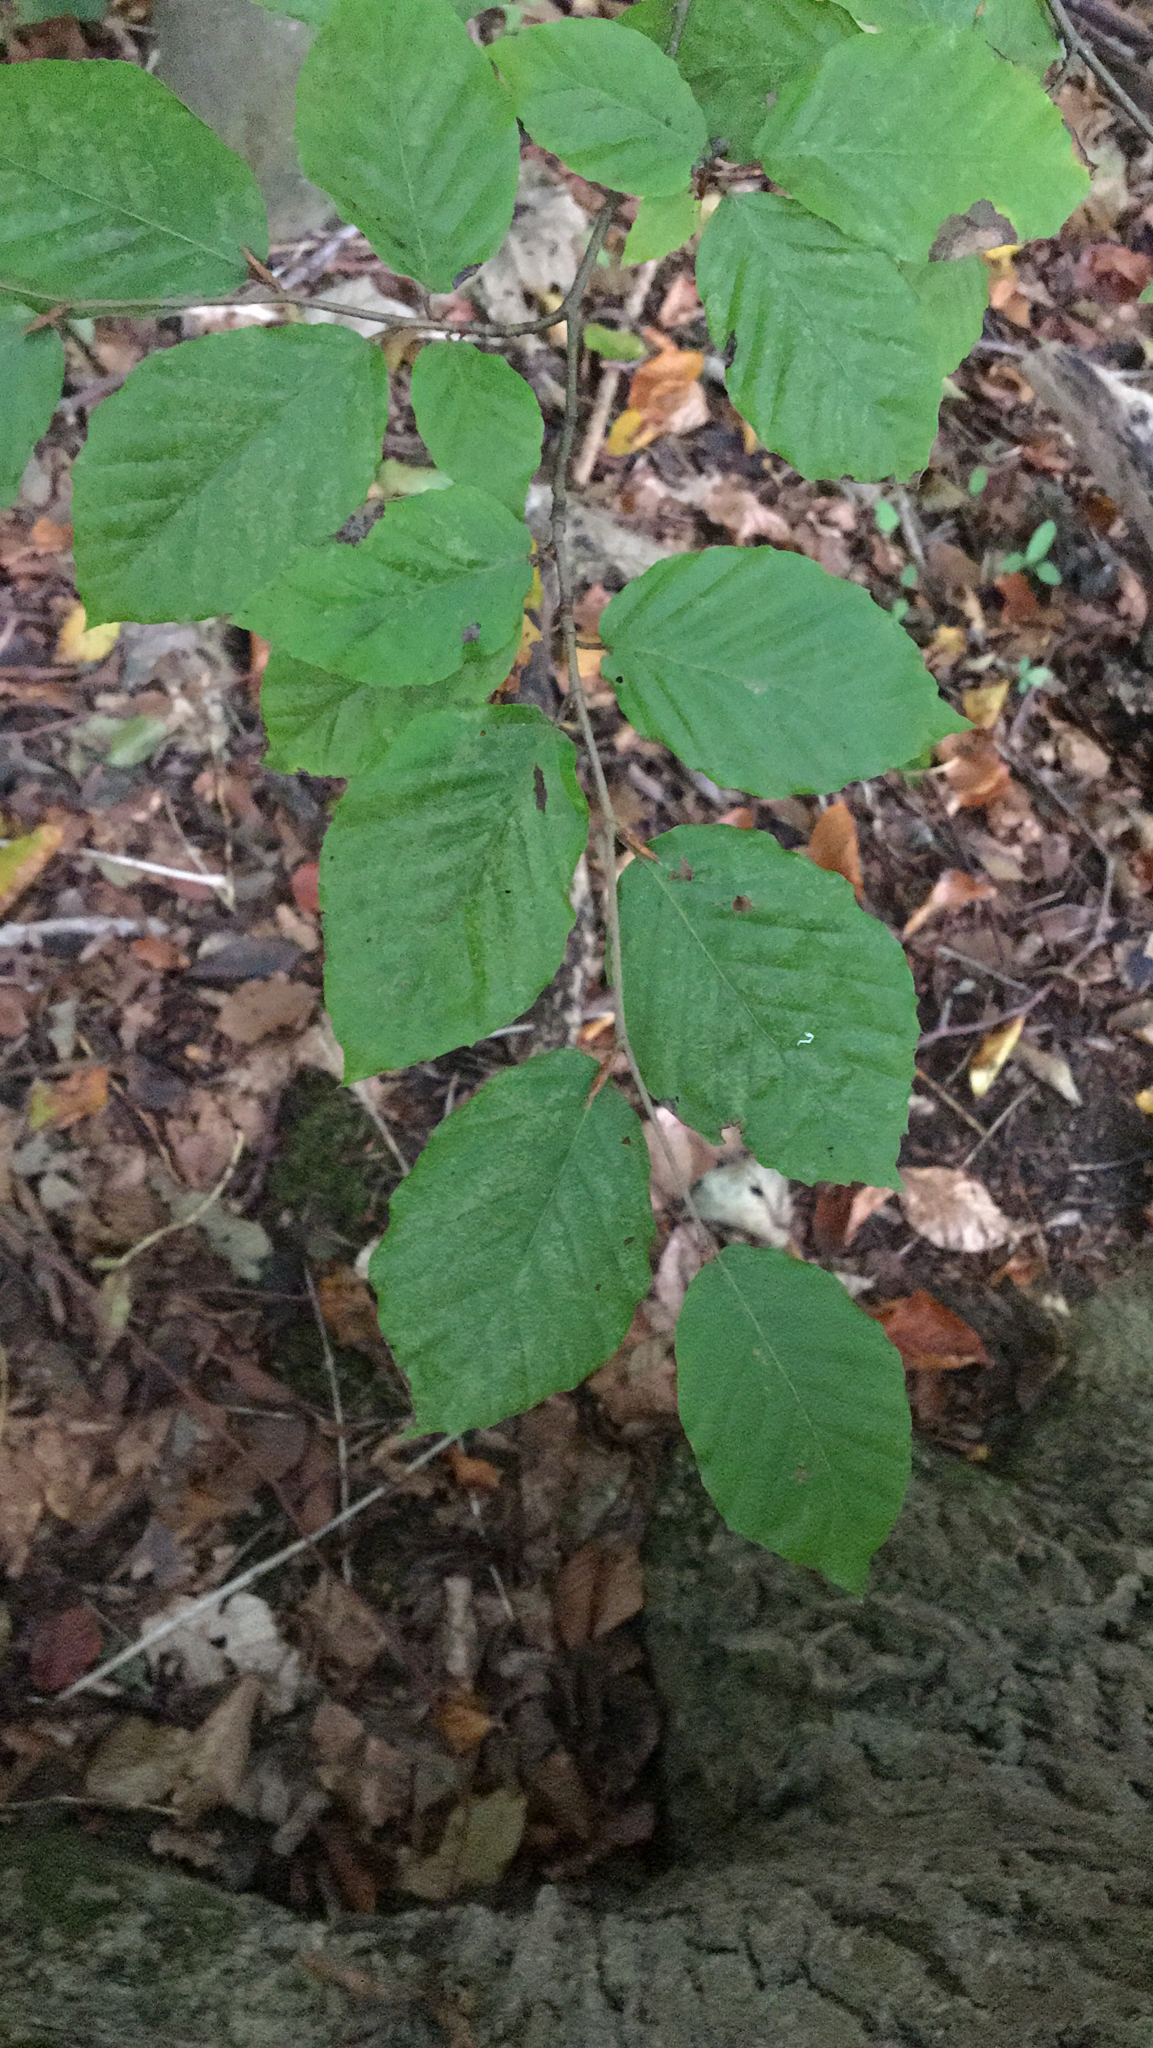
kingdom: Plantae
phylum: Tracheophyta
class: Magnoliopsida
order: Fagales
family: Fagaceae
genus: Fagus
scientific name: Fagus sylvatica
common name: Beech
